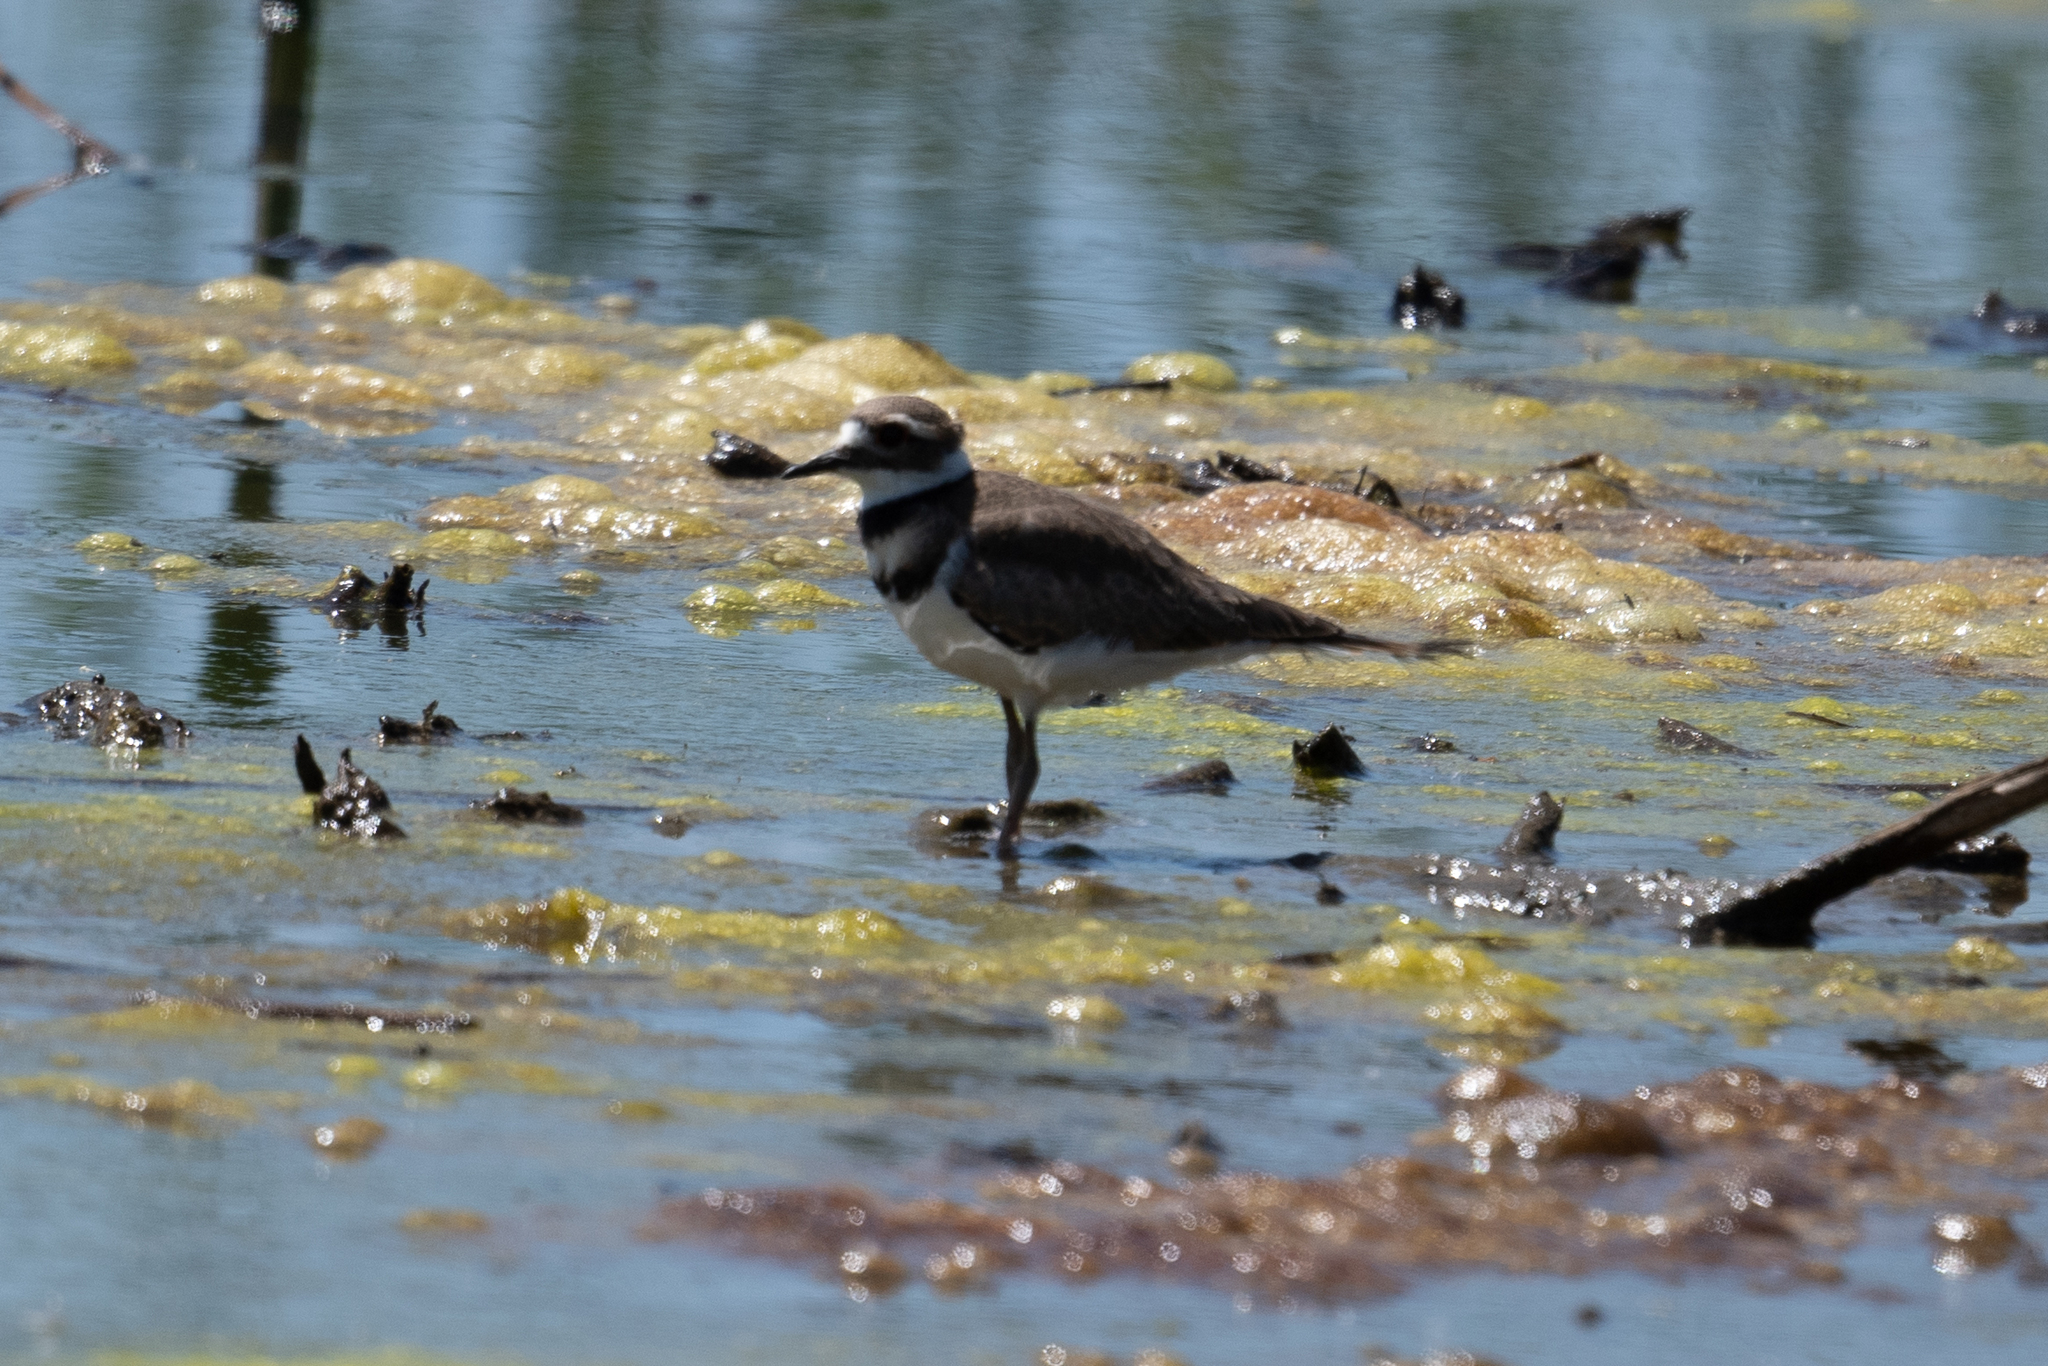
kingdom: Animalia
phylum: Chordata
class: Aves
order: Charadriiformes
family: Charadriidae
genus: Charadrius
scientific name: Charadrius vociferus
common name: Killdeer
